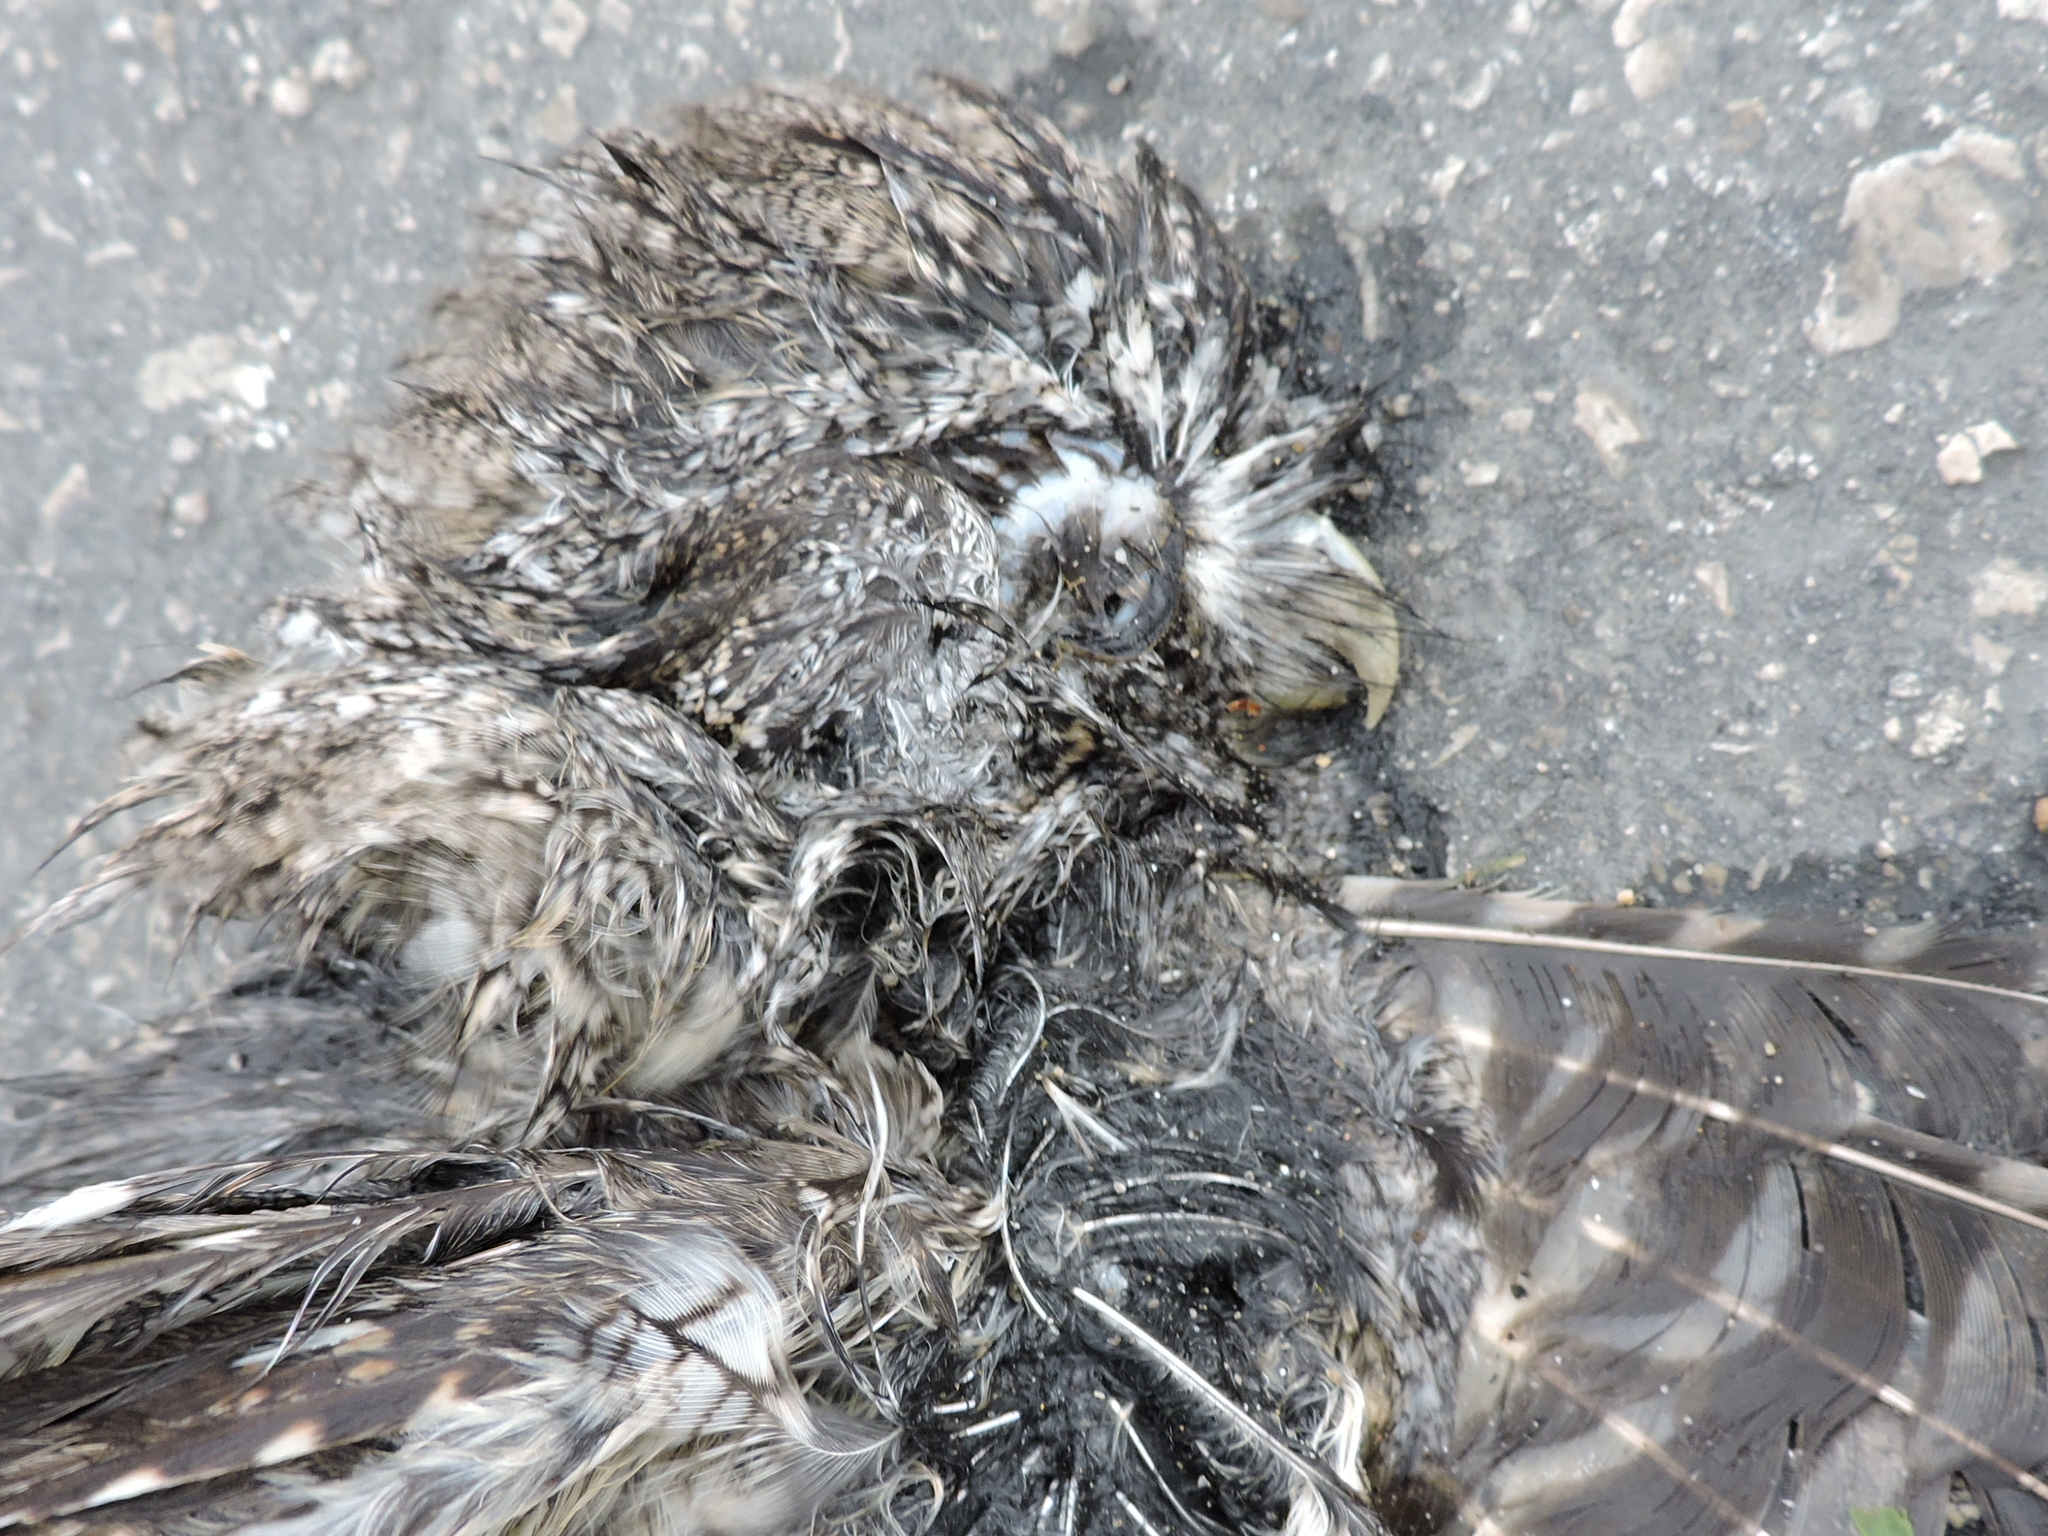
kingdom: Animalia
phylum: Chordata
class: Aves
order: Strigiformes
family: Strigidae
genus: Megascops
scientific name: Megascops asio
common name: Eastern screech-owl
